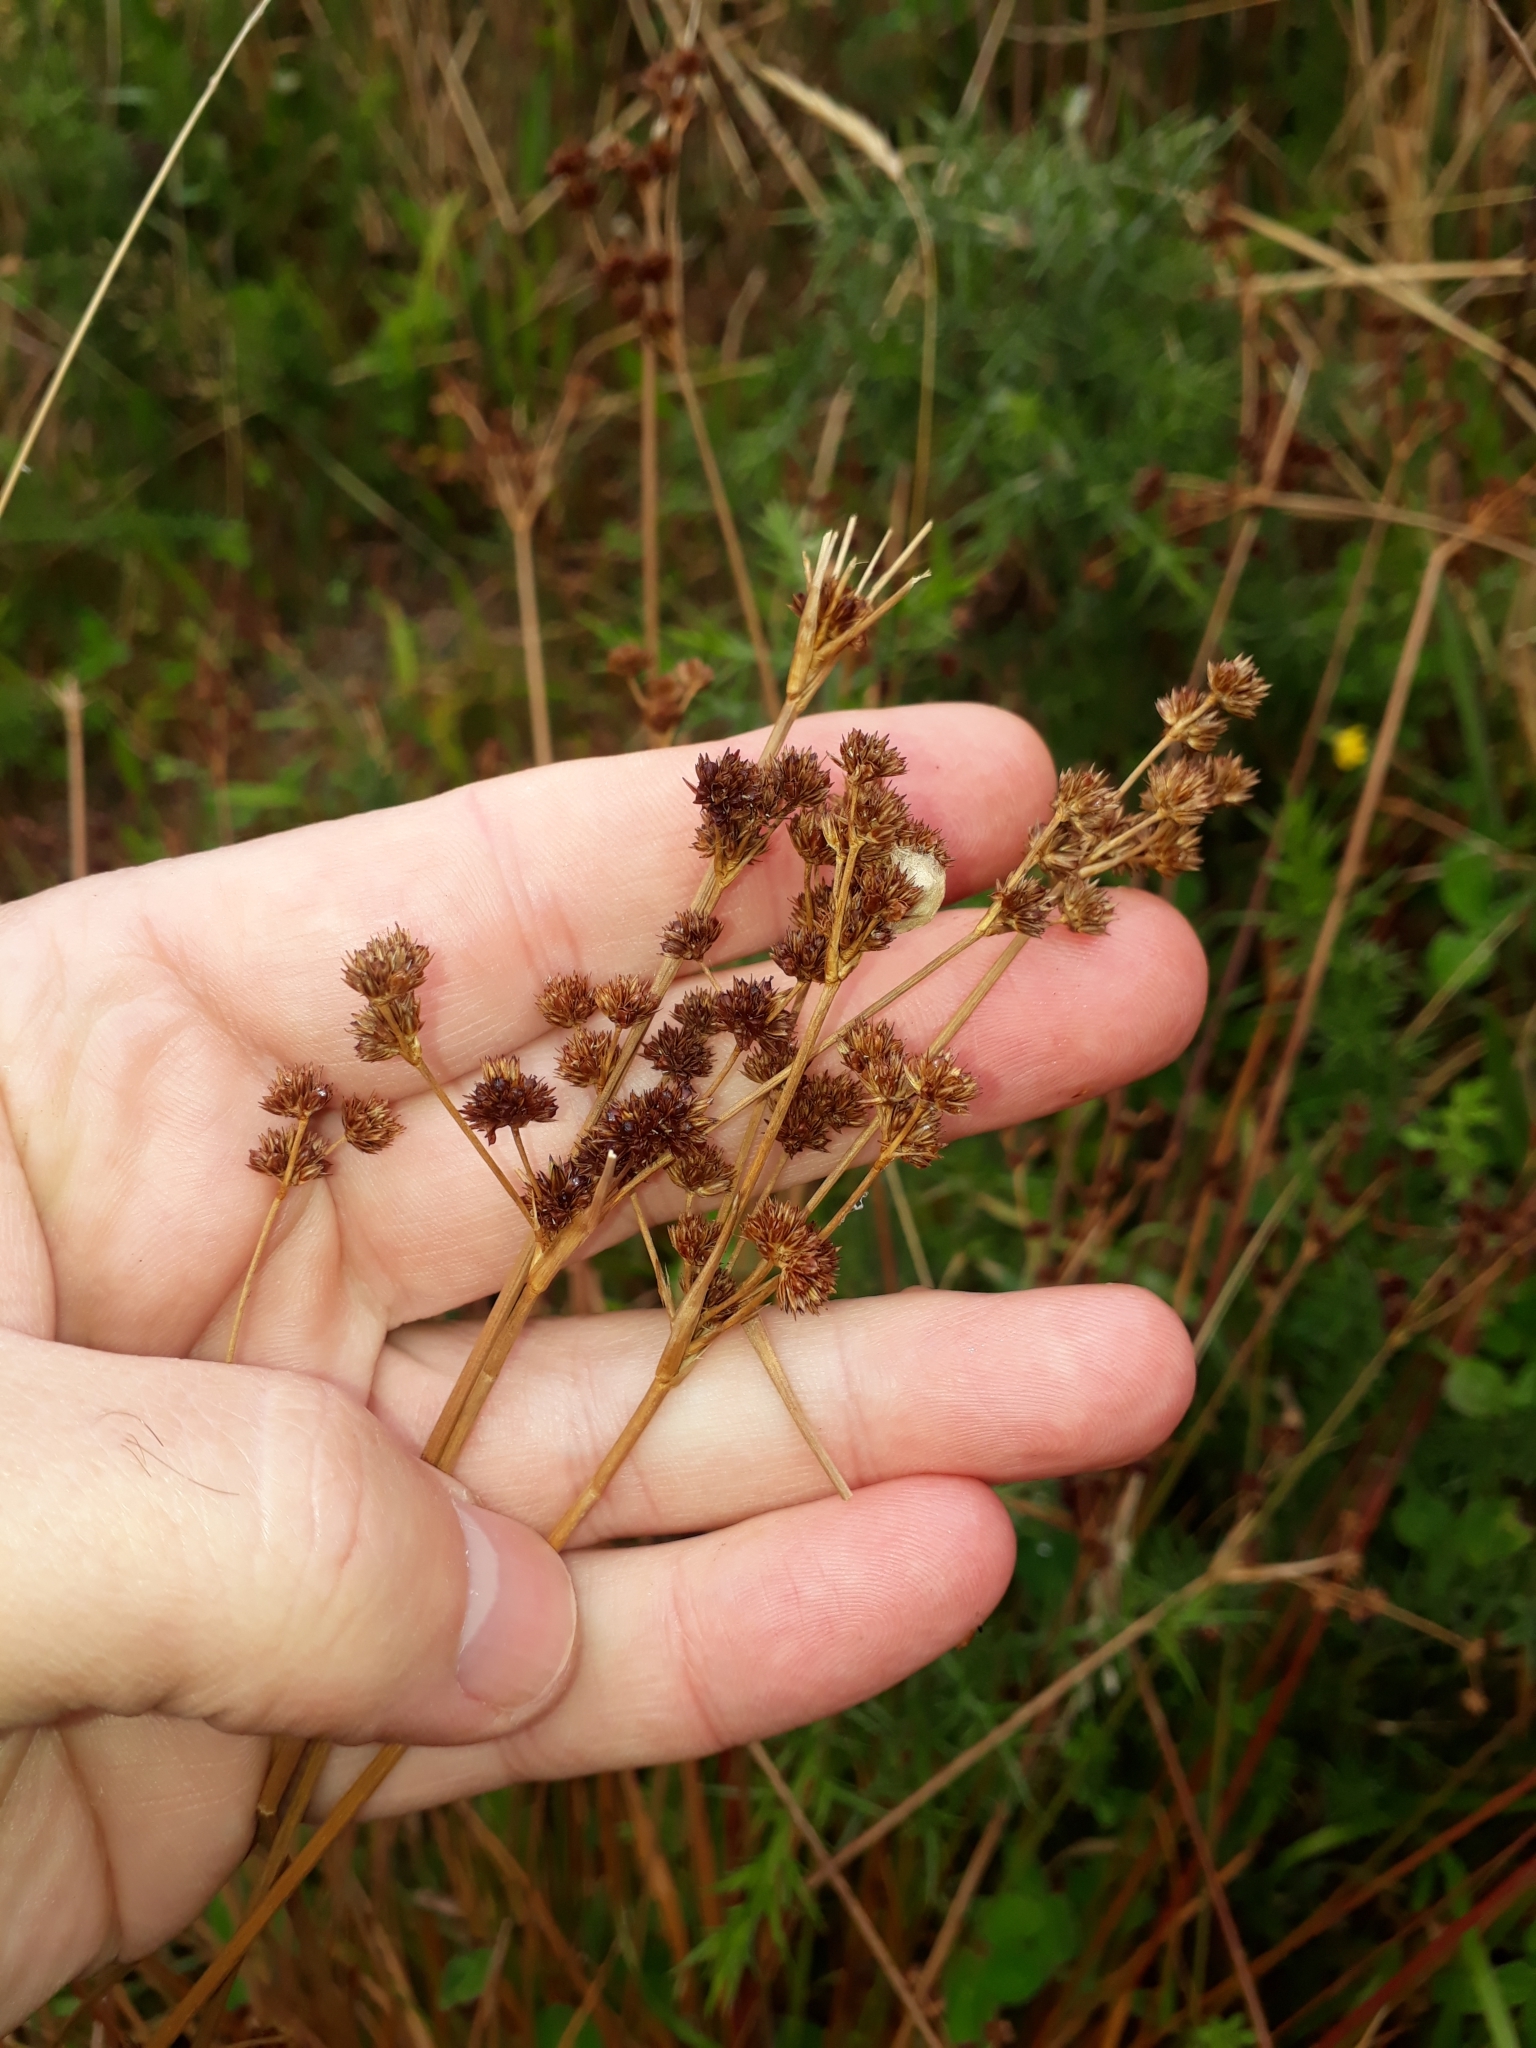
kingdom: Plantae
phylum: Tracheophyta
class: Liliopsida
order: Poales
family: Juncaceae
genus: Juncus
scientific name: Juncus planifolius
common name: Broadleaf rush
